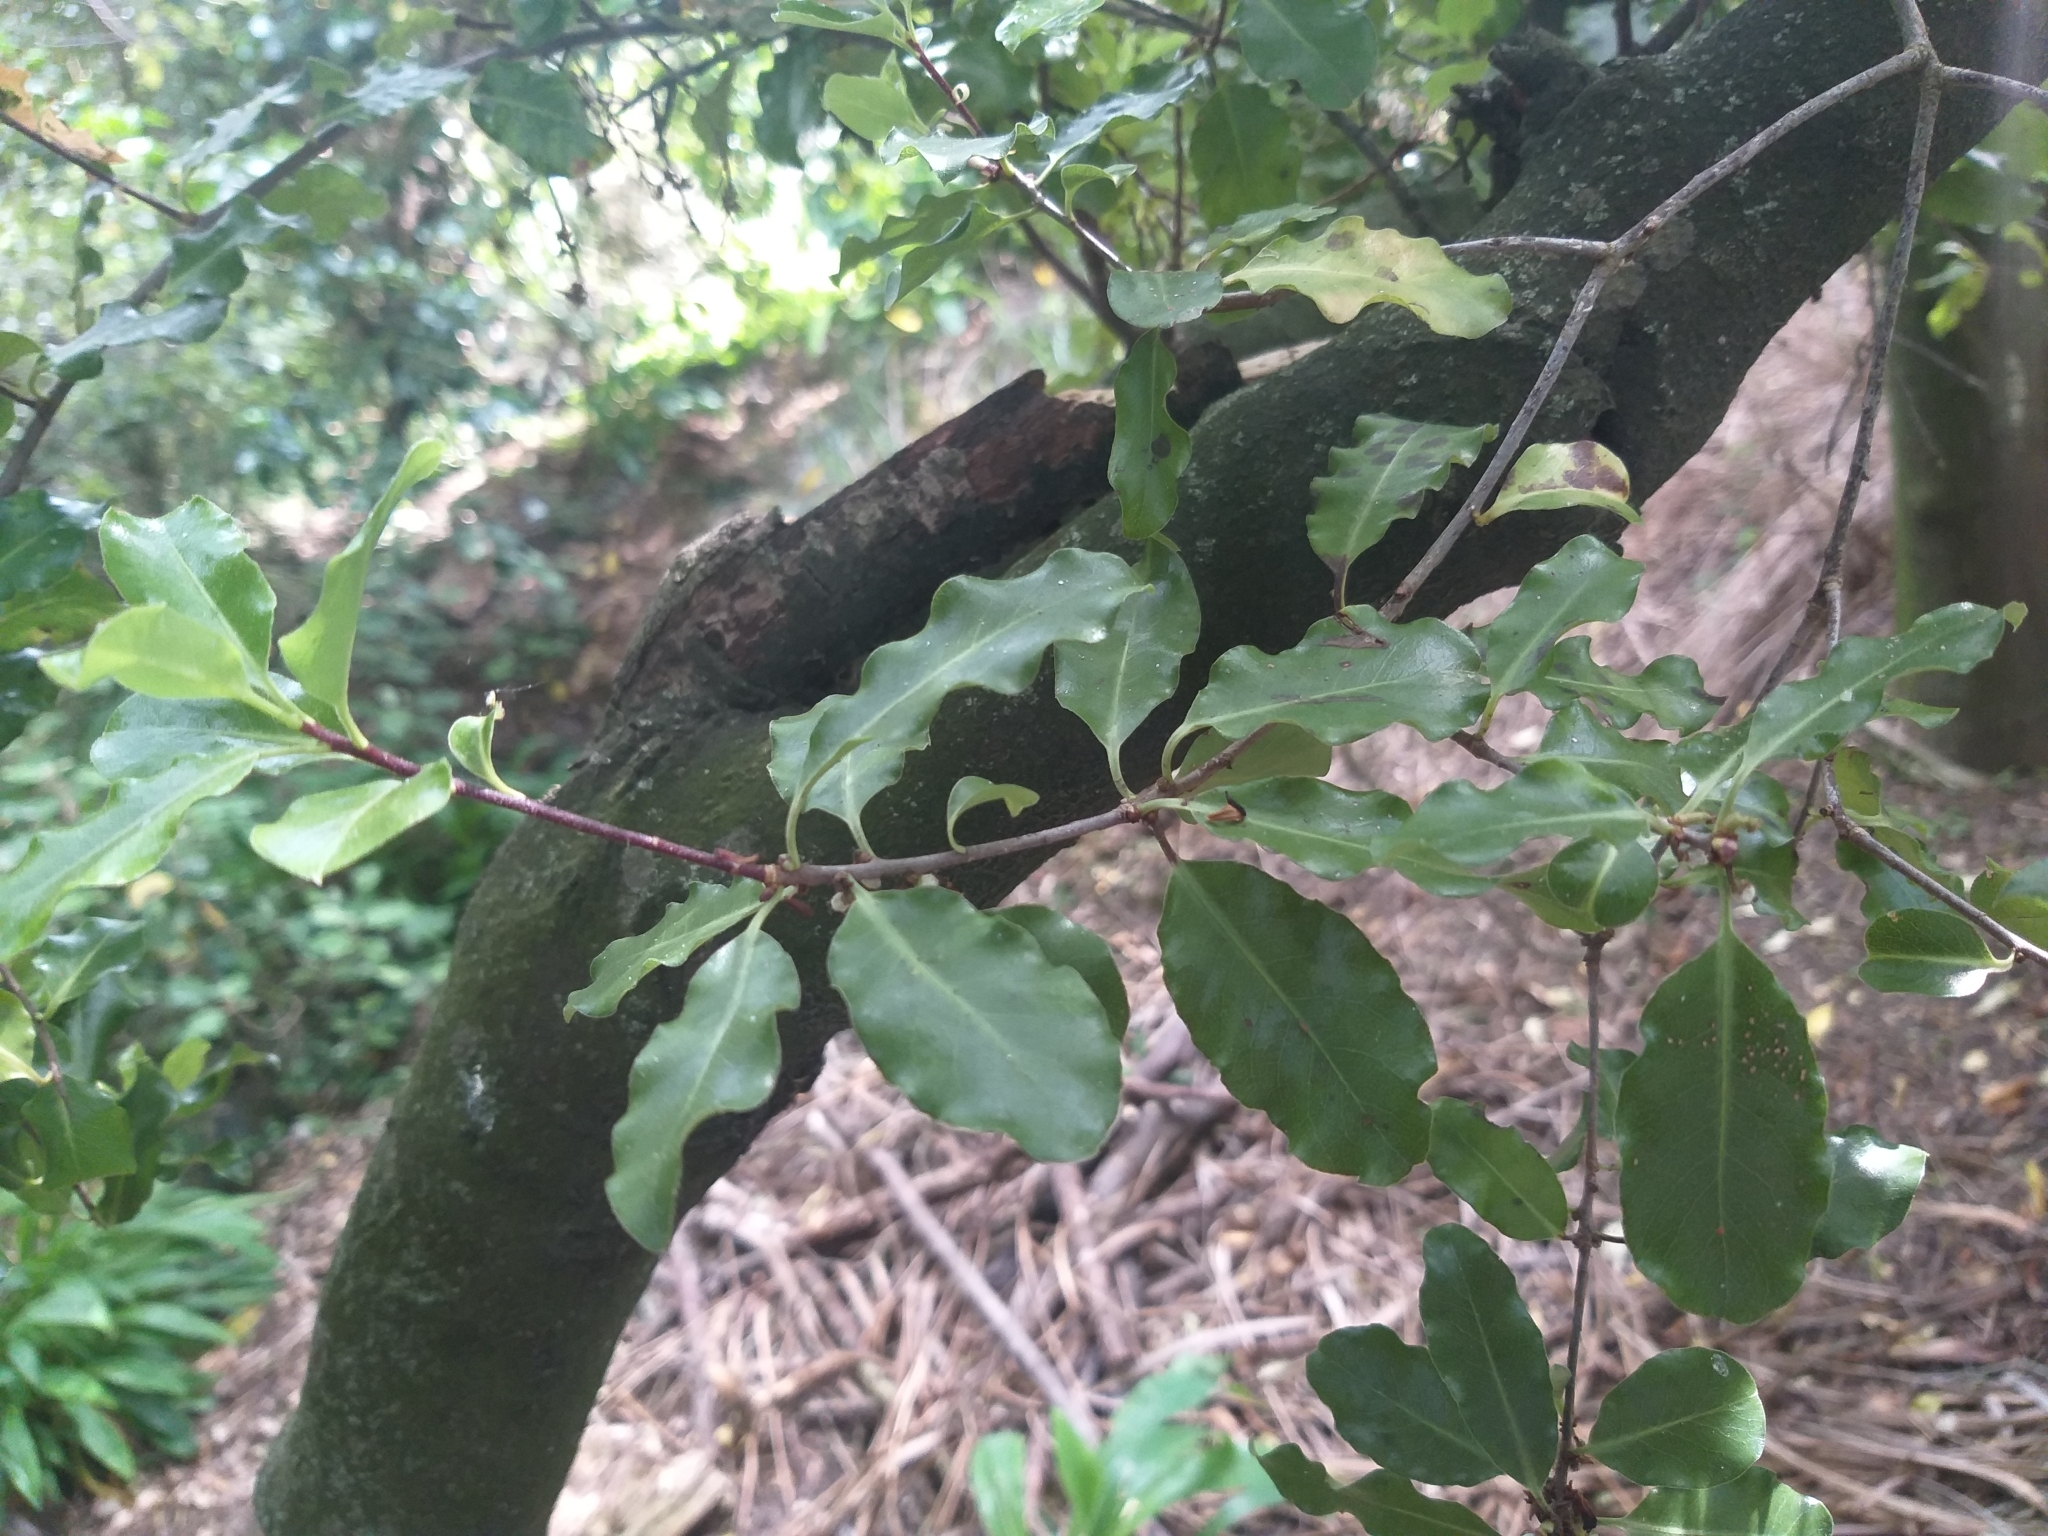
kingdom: Plantae
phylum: Tracheophyta
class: Magnoliopsida
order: Apiales
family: Pittosporaceae
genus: Pittosporum
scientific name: Pittosporum tenuifolium
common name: Kohuhu
